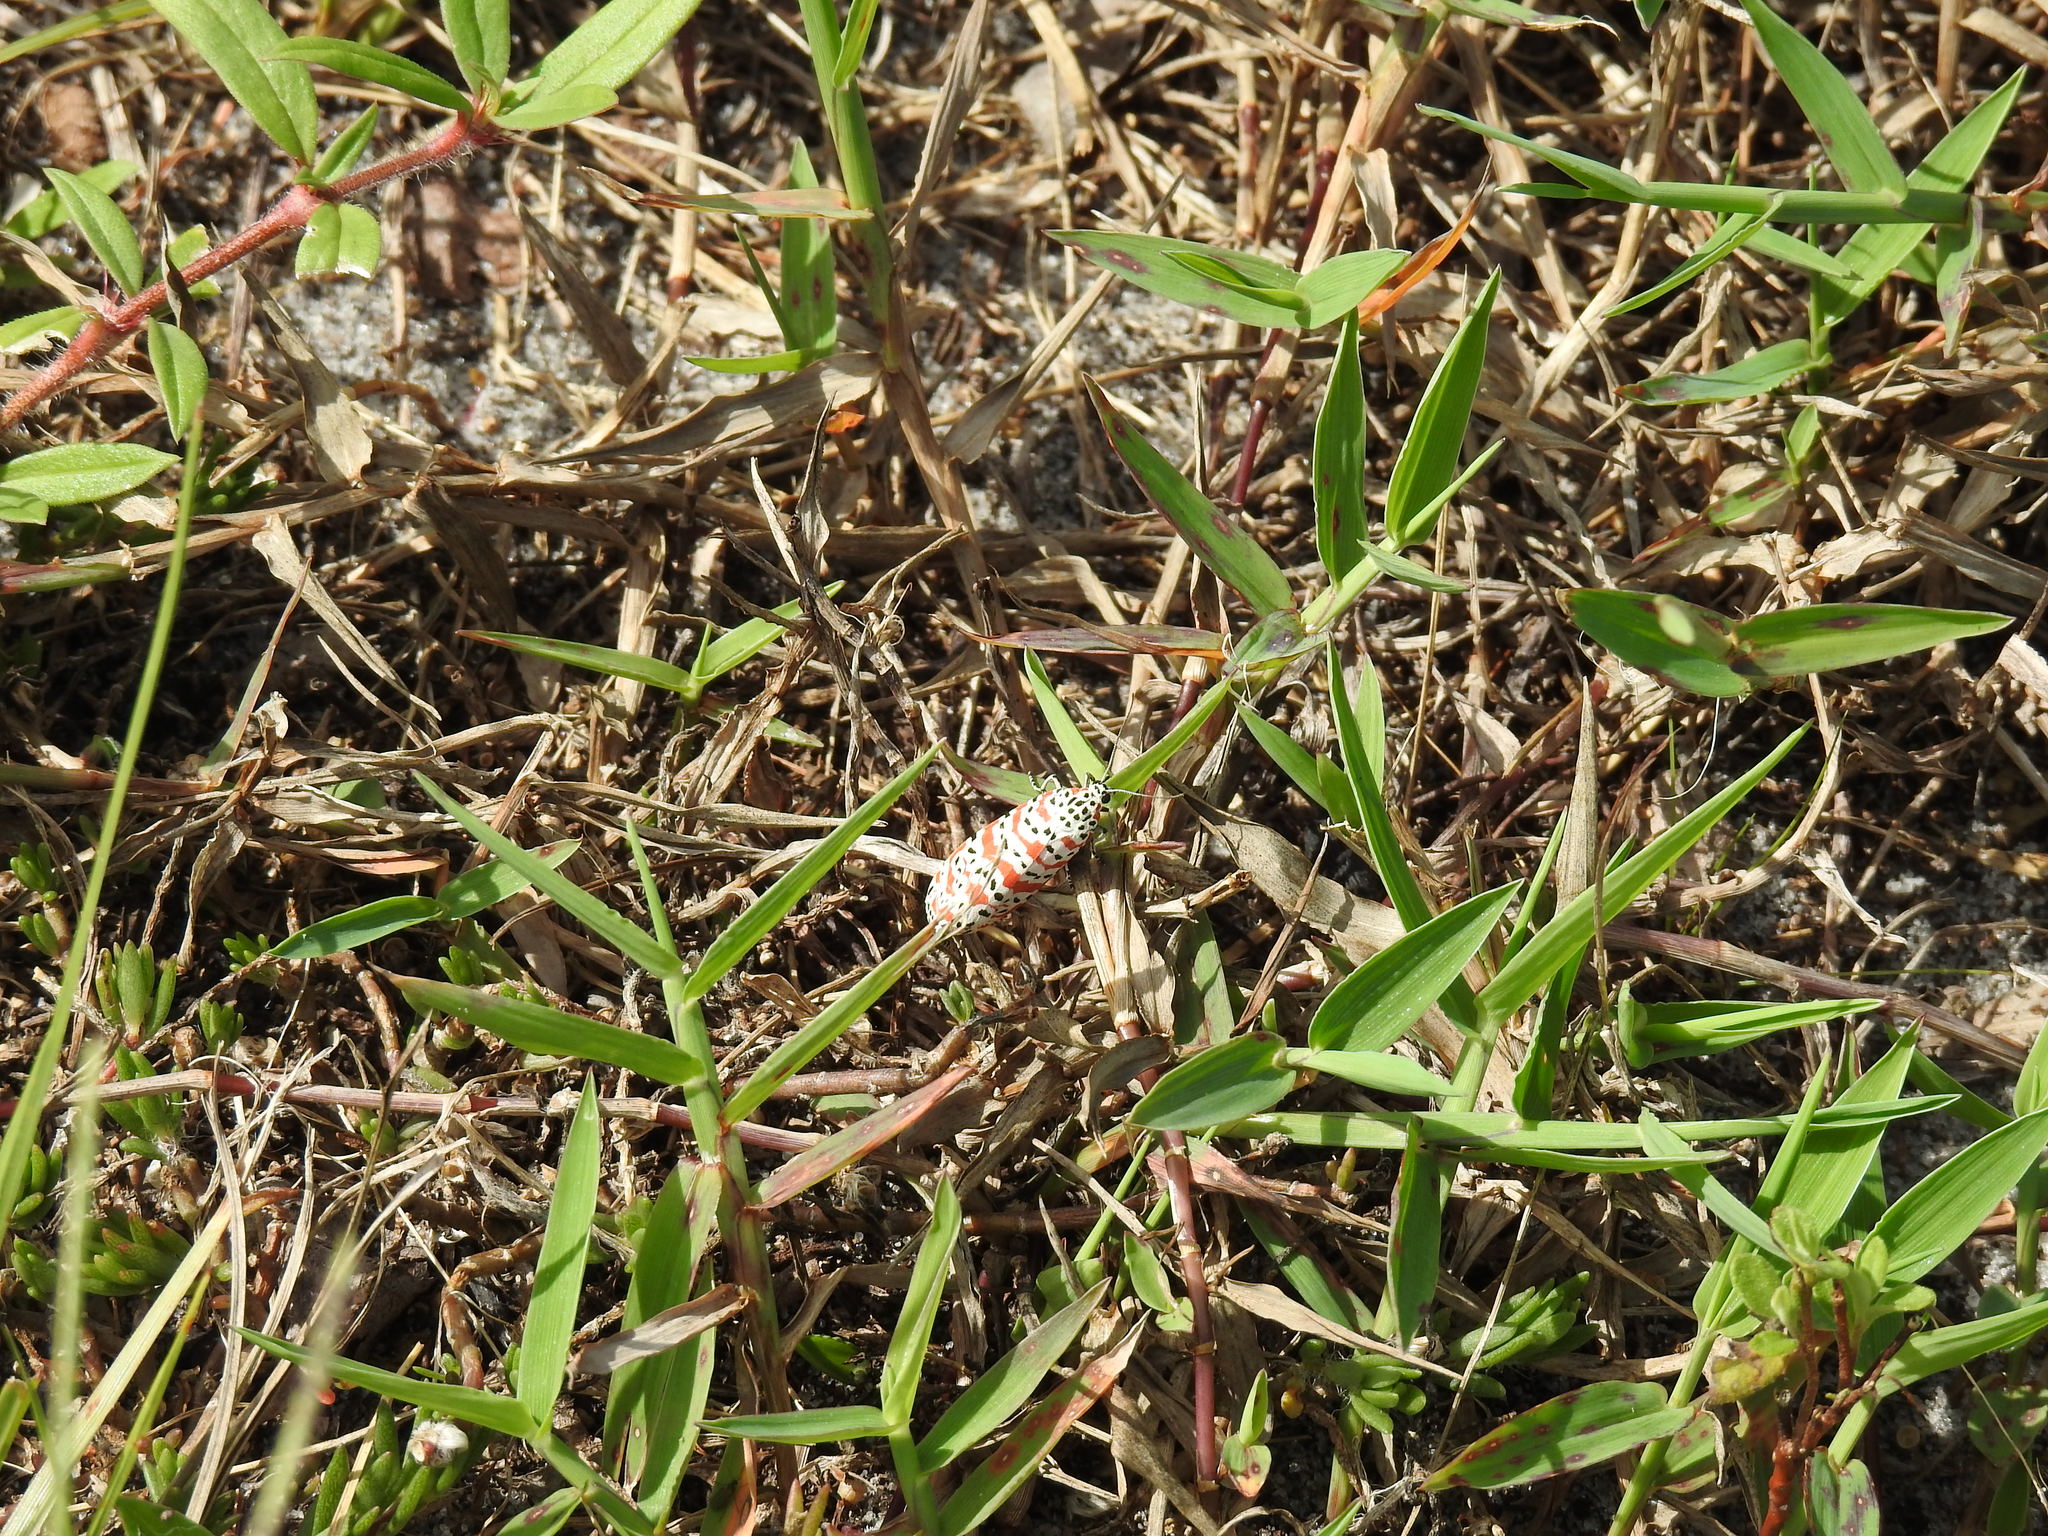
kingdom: Animalia
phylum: Arthropoda
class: Insecta
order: Lepidoptera
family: Erebidae
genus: Utetheisa
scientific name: Utetheisa ornatrix
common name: Beautiful utetheisa
